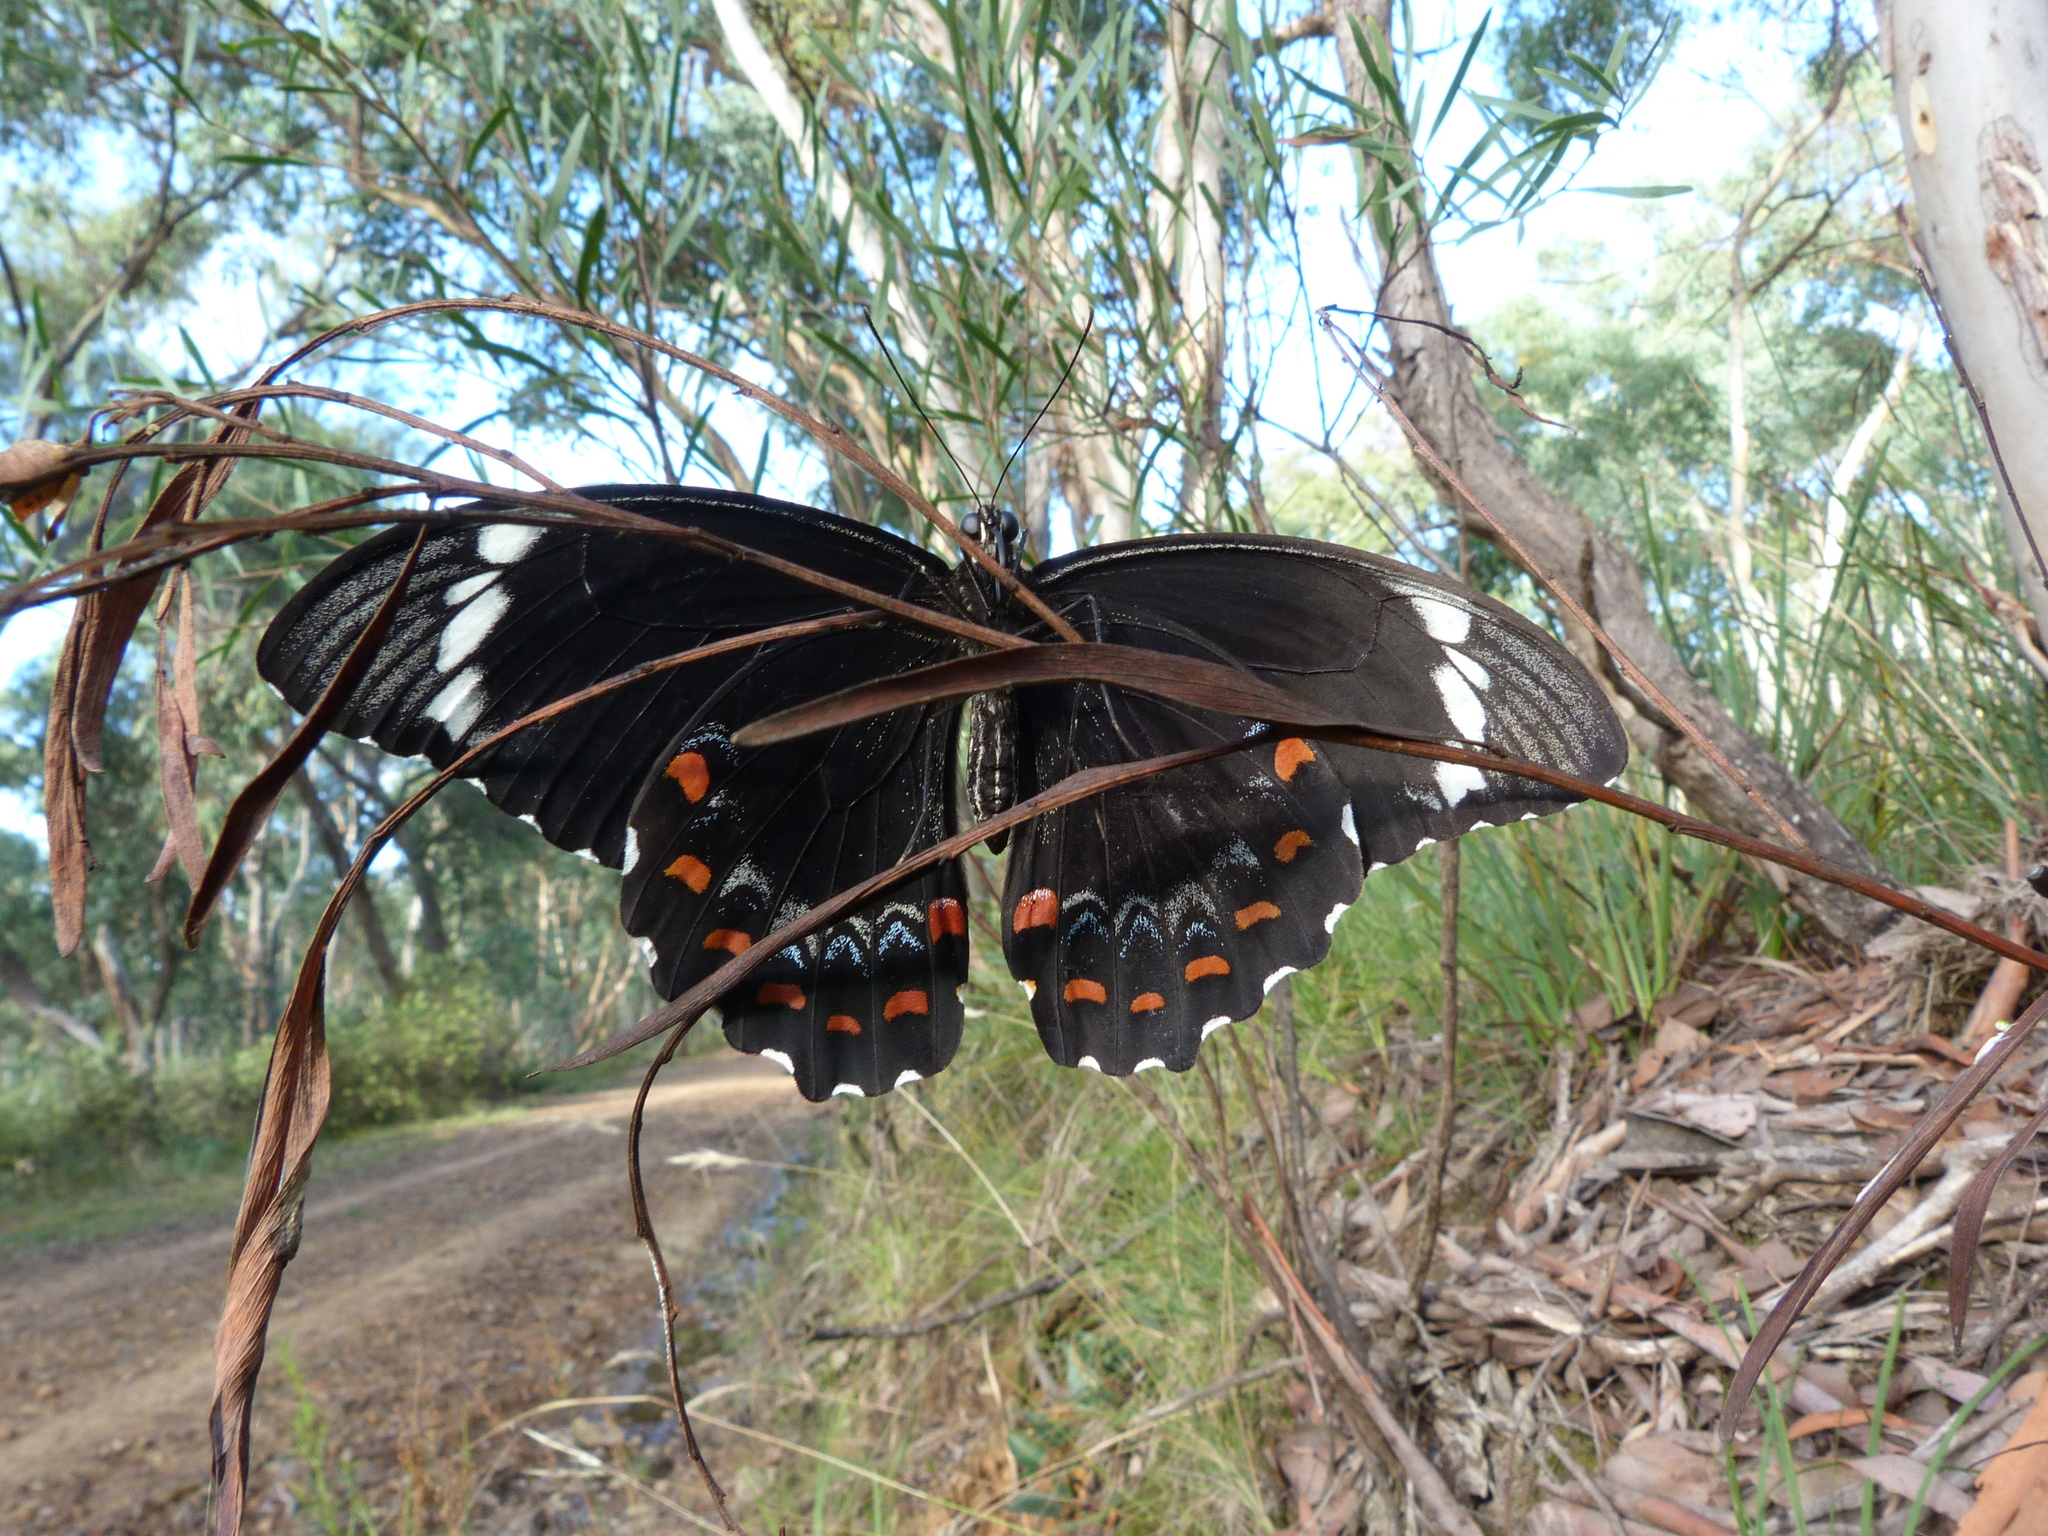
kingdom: Animalia
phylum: Arthropoda
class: Insecta
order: Lepidoptera
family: Papilionidae
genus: Papilio
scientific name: Papilio aegeus
